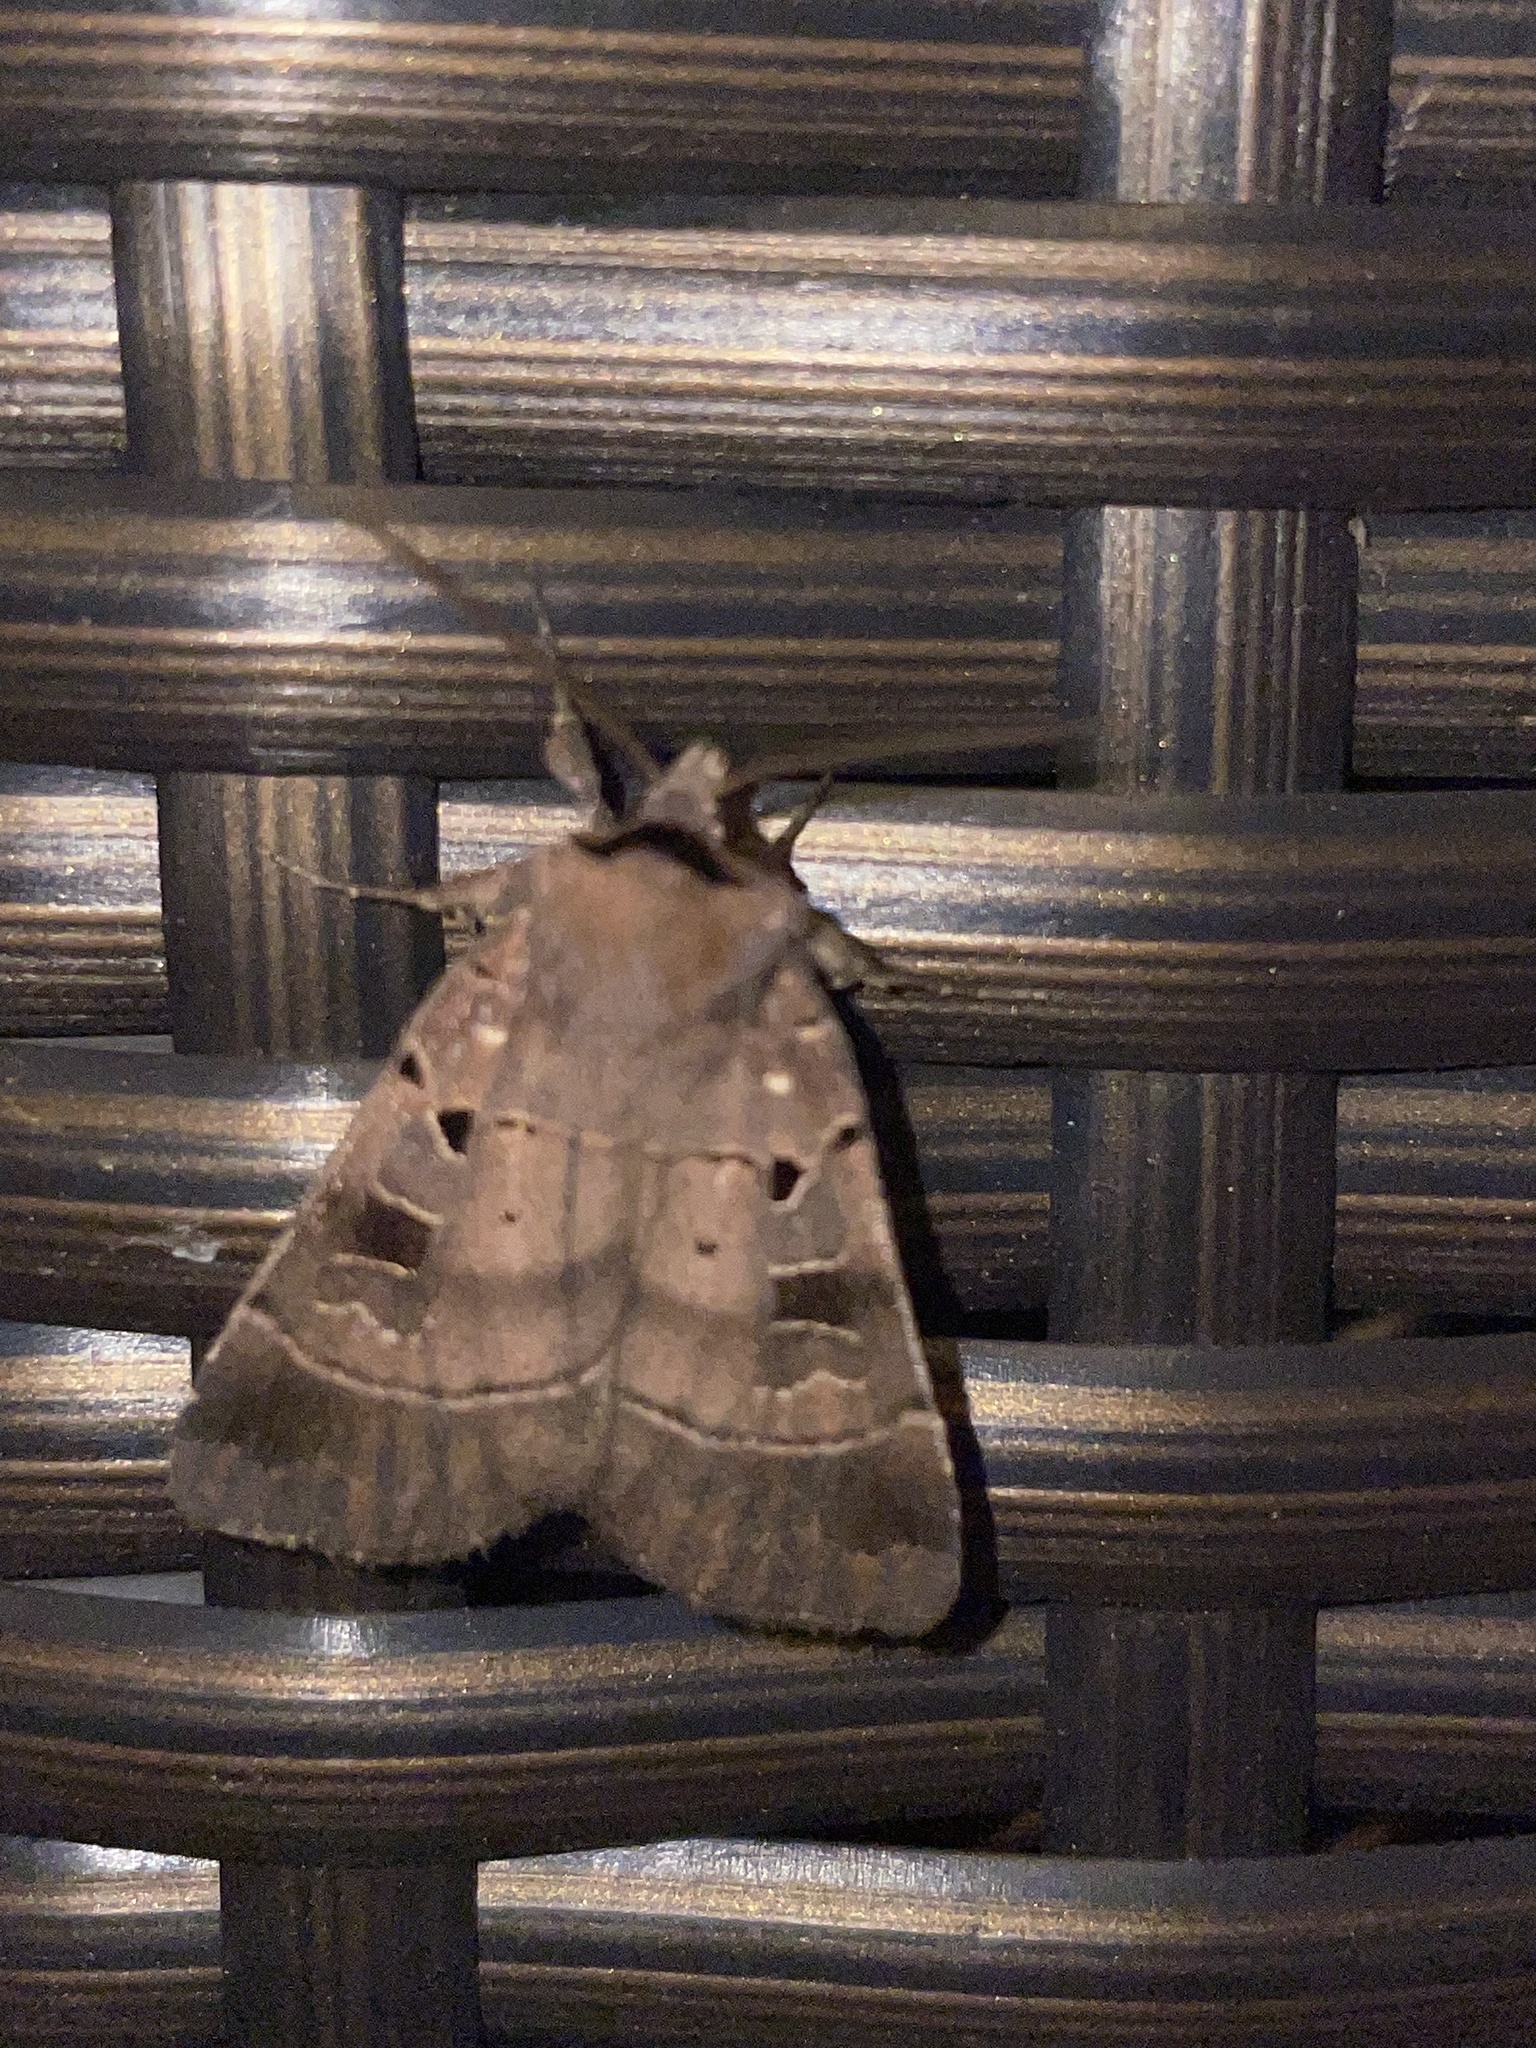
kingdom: Animalia
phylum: Arthropoda
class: Insecta
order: Lepidoptera
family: Noctuidae
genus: Agnorisma
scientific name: Agnorisma badinodis
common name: Pale-banded dart
